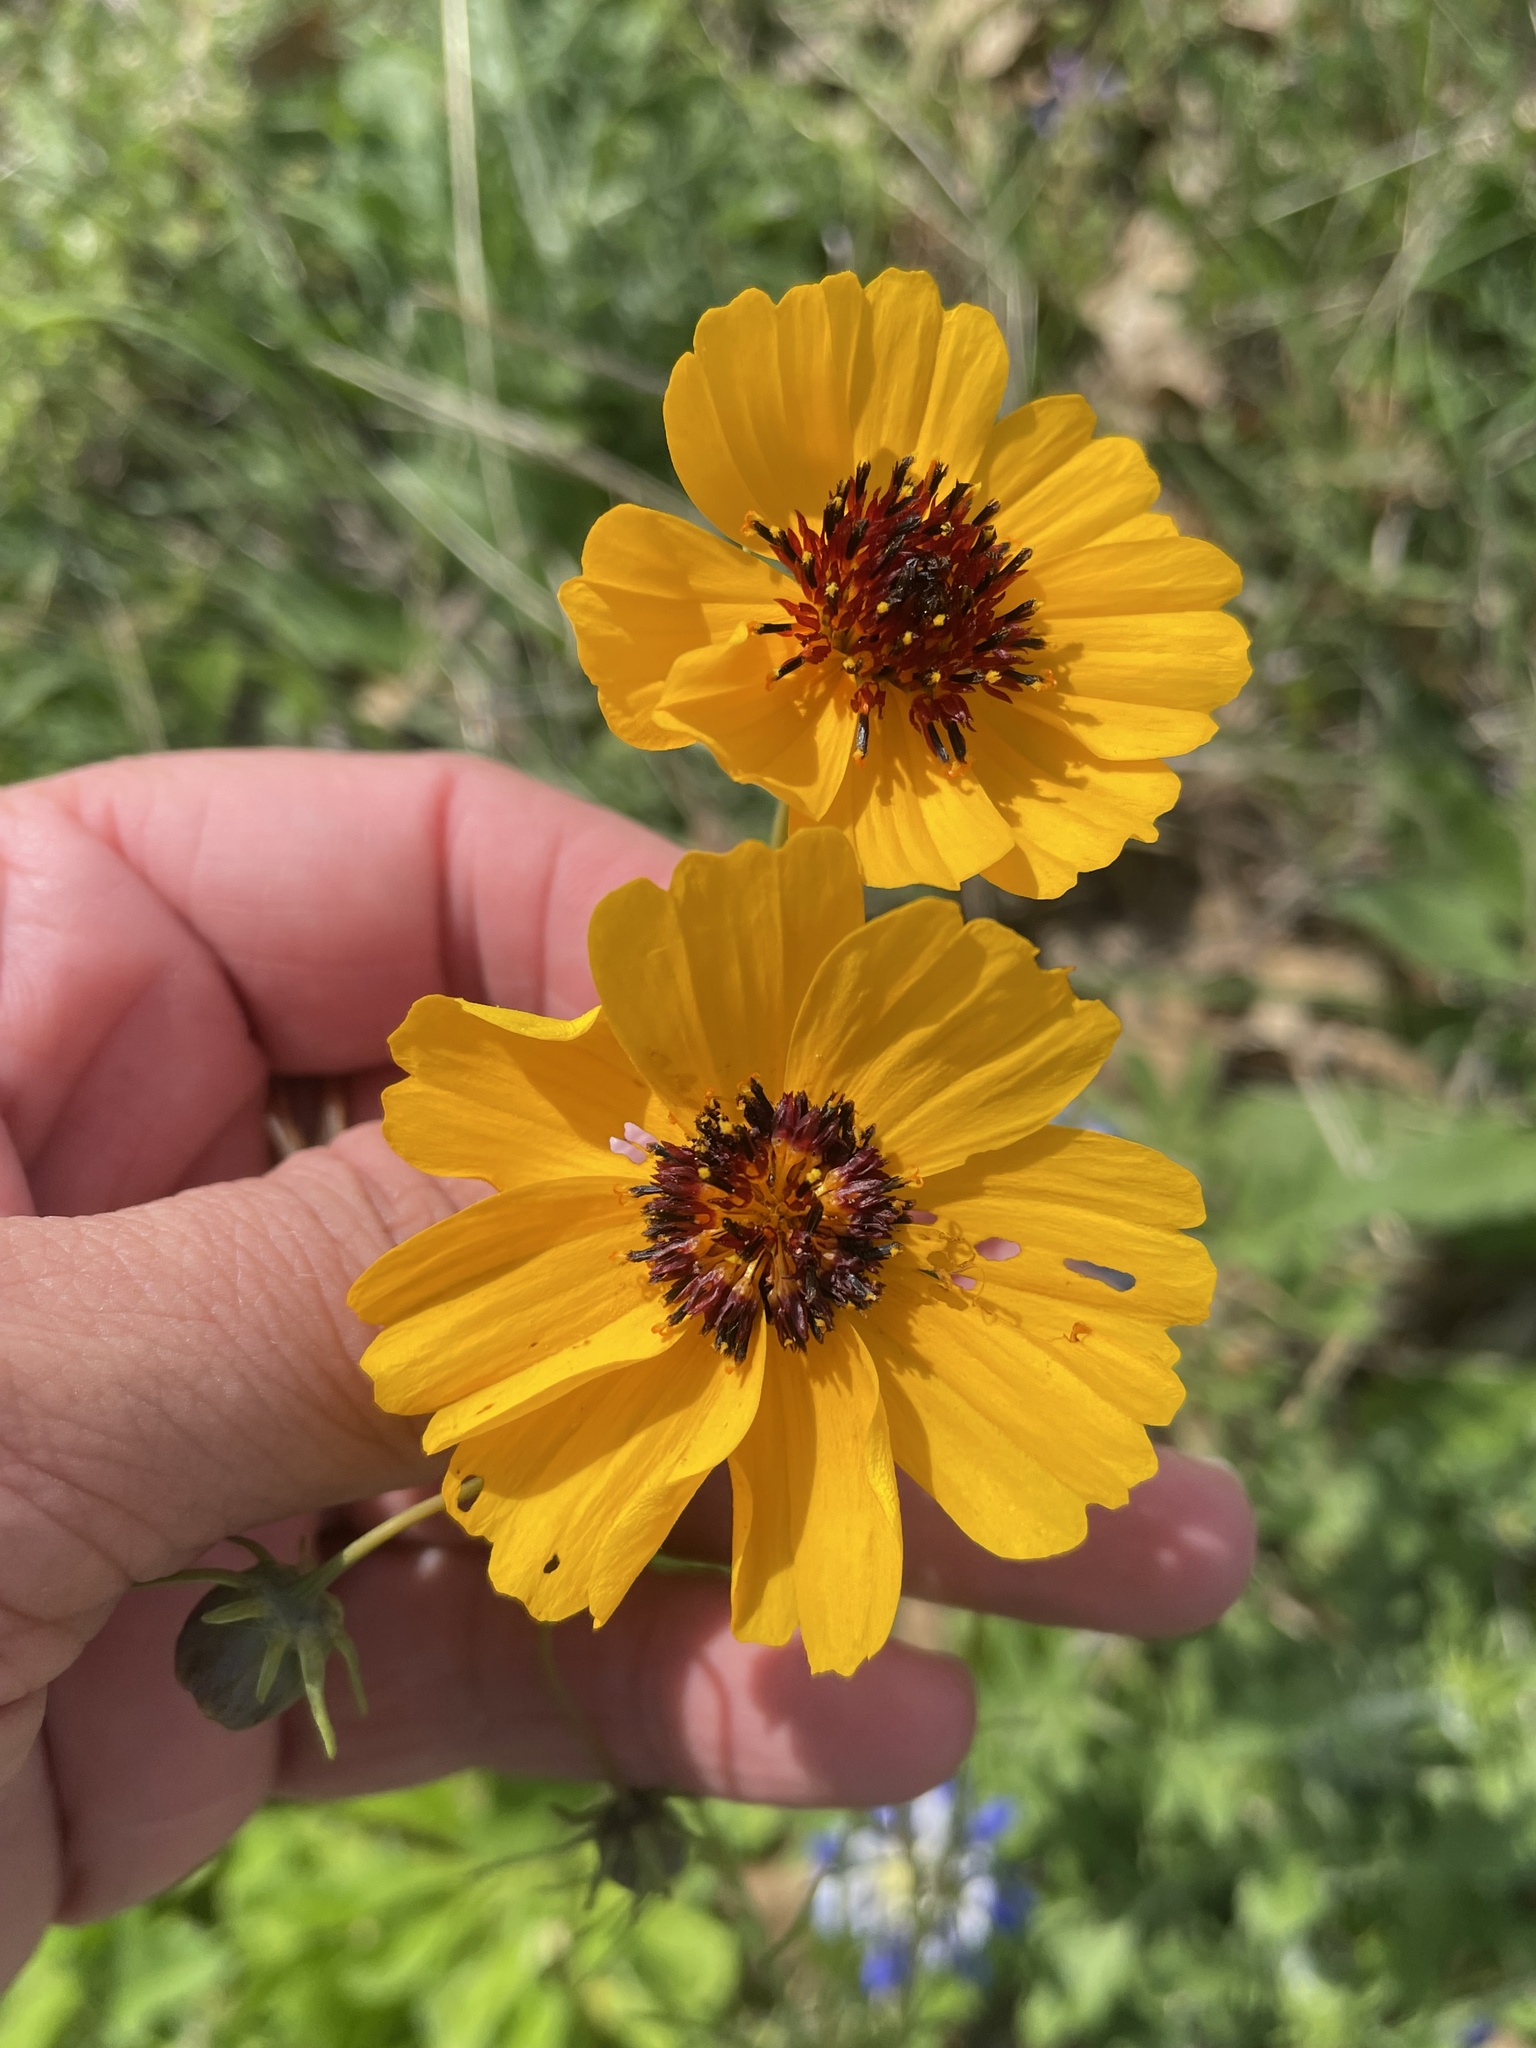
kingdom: Plantae
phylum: Tracheophyta
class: Magnoliopsida
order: Asterales
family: Asteraceae
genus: Thelesperma
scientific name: Thelesperma filifolium
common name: Stiff greenthread
